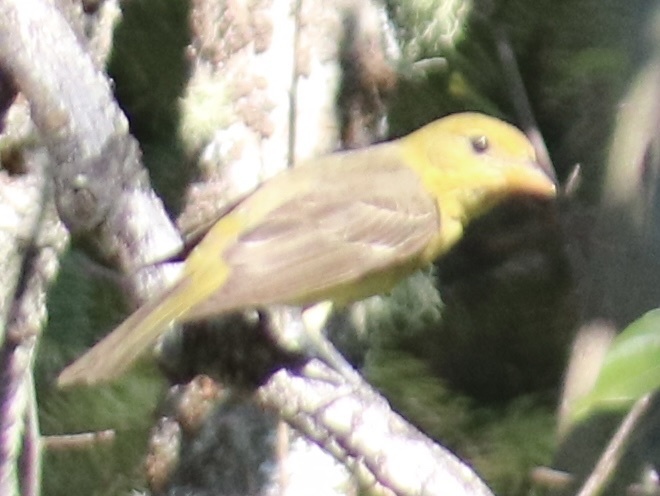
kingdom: Animalia
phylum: Chordata
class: Aves
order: Passeriformes
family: Cardinalidae
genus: Piranga
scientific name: Piranga ludoviciana
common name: Western tanager
